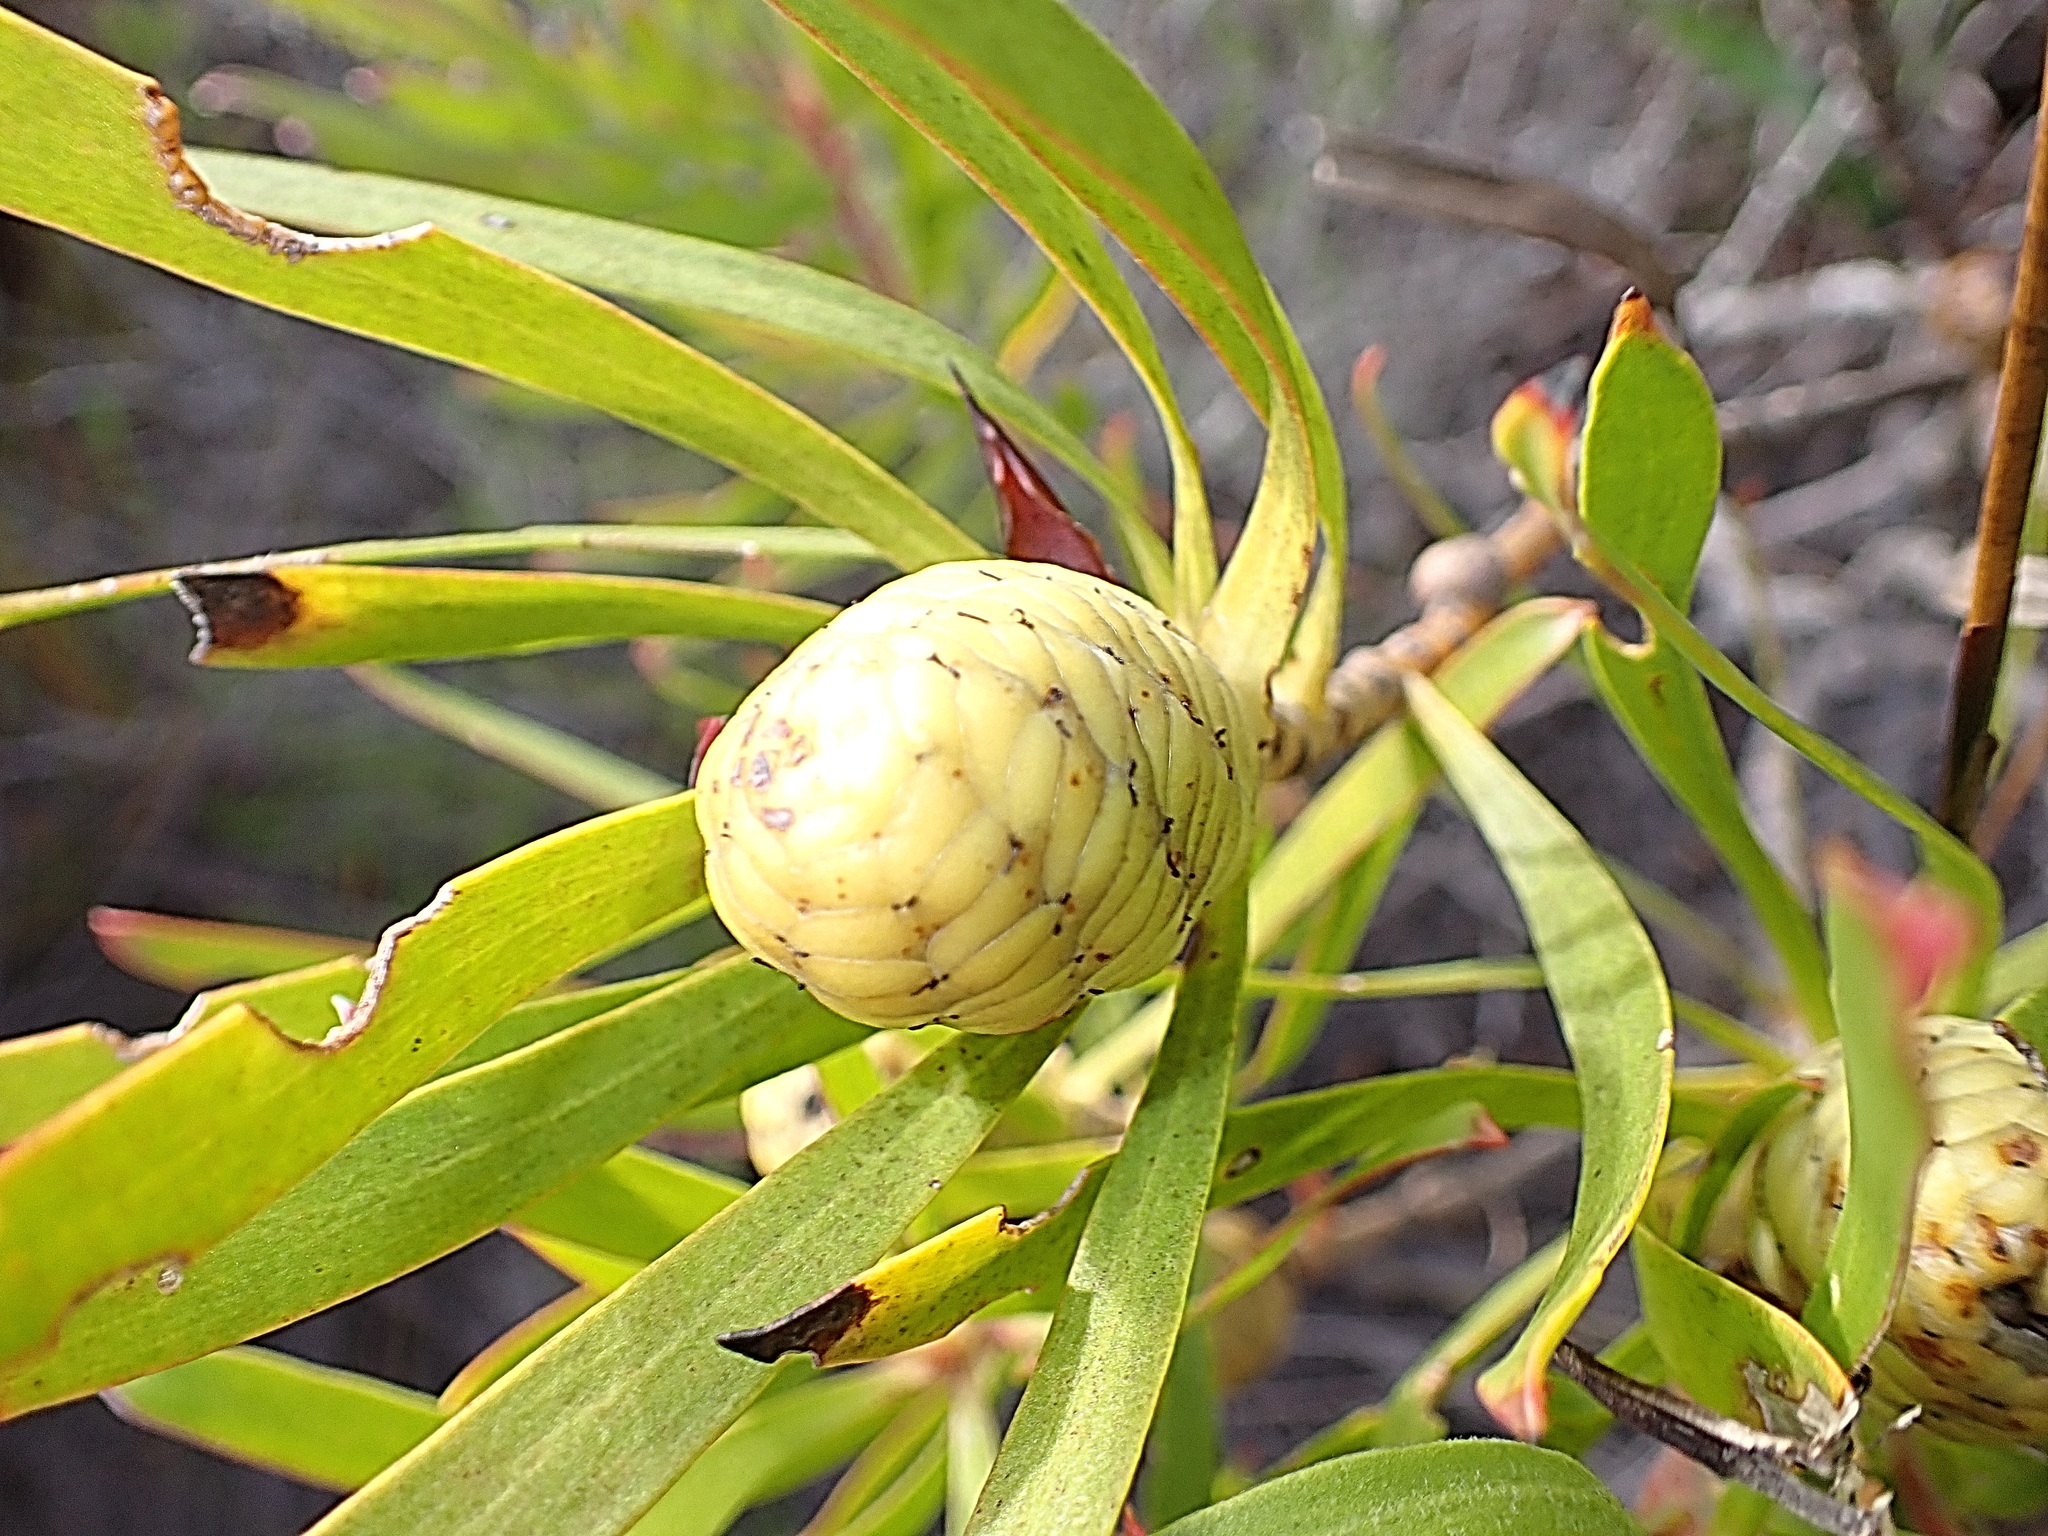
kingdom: Plantae
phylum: Tracheophyta
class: Magnoliopsida
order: Proteales
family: Proteaceae
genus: Leucadendron
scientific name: Leucadendron meridianum
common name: Limestone conebush
